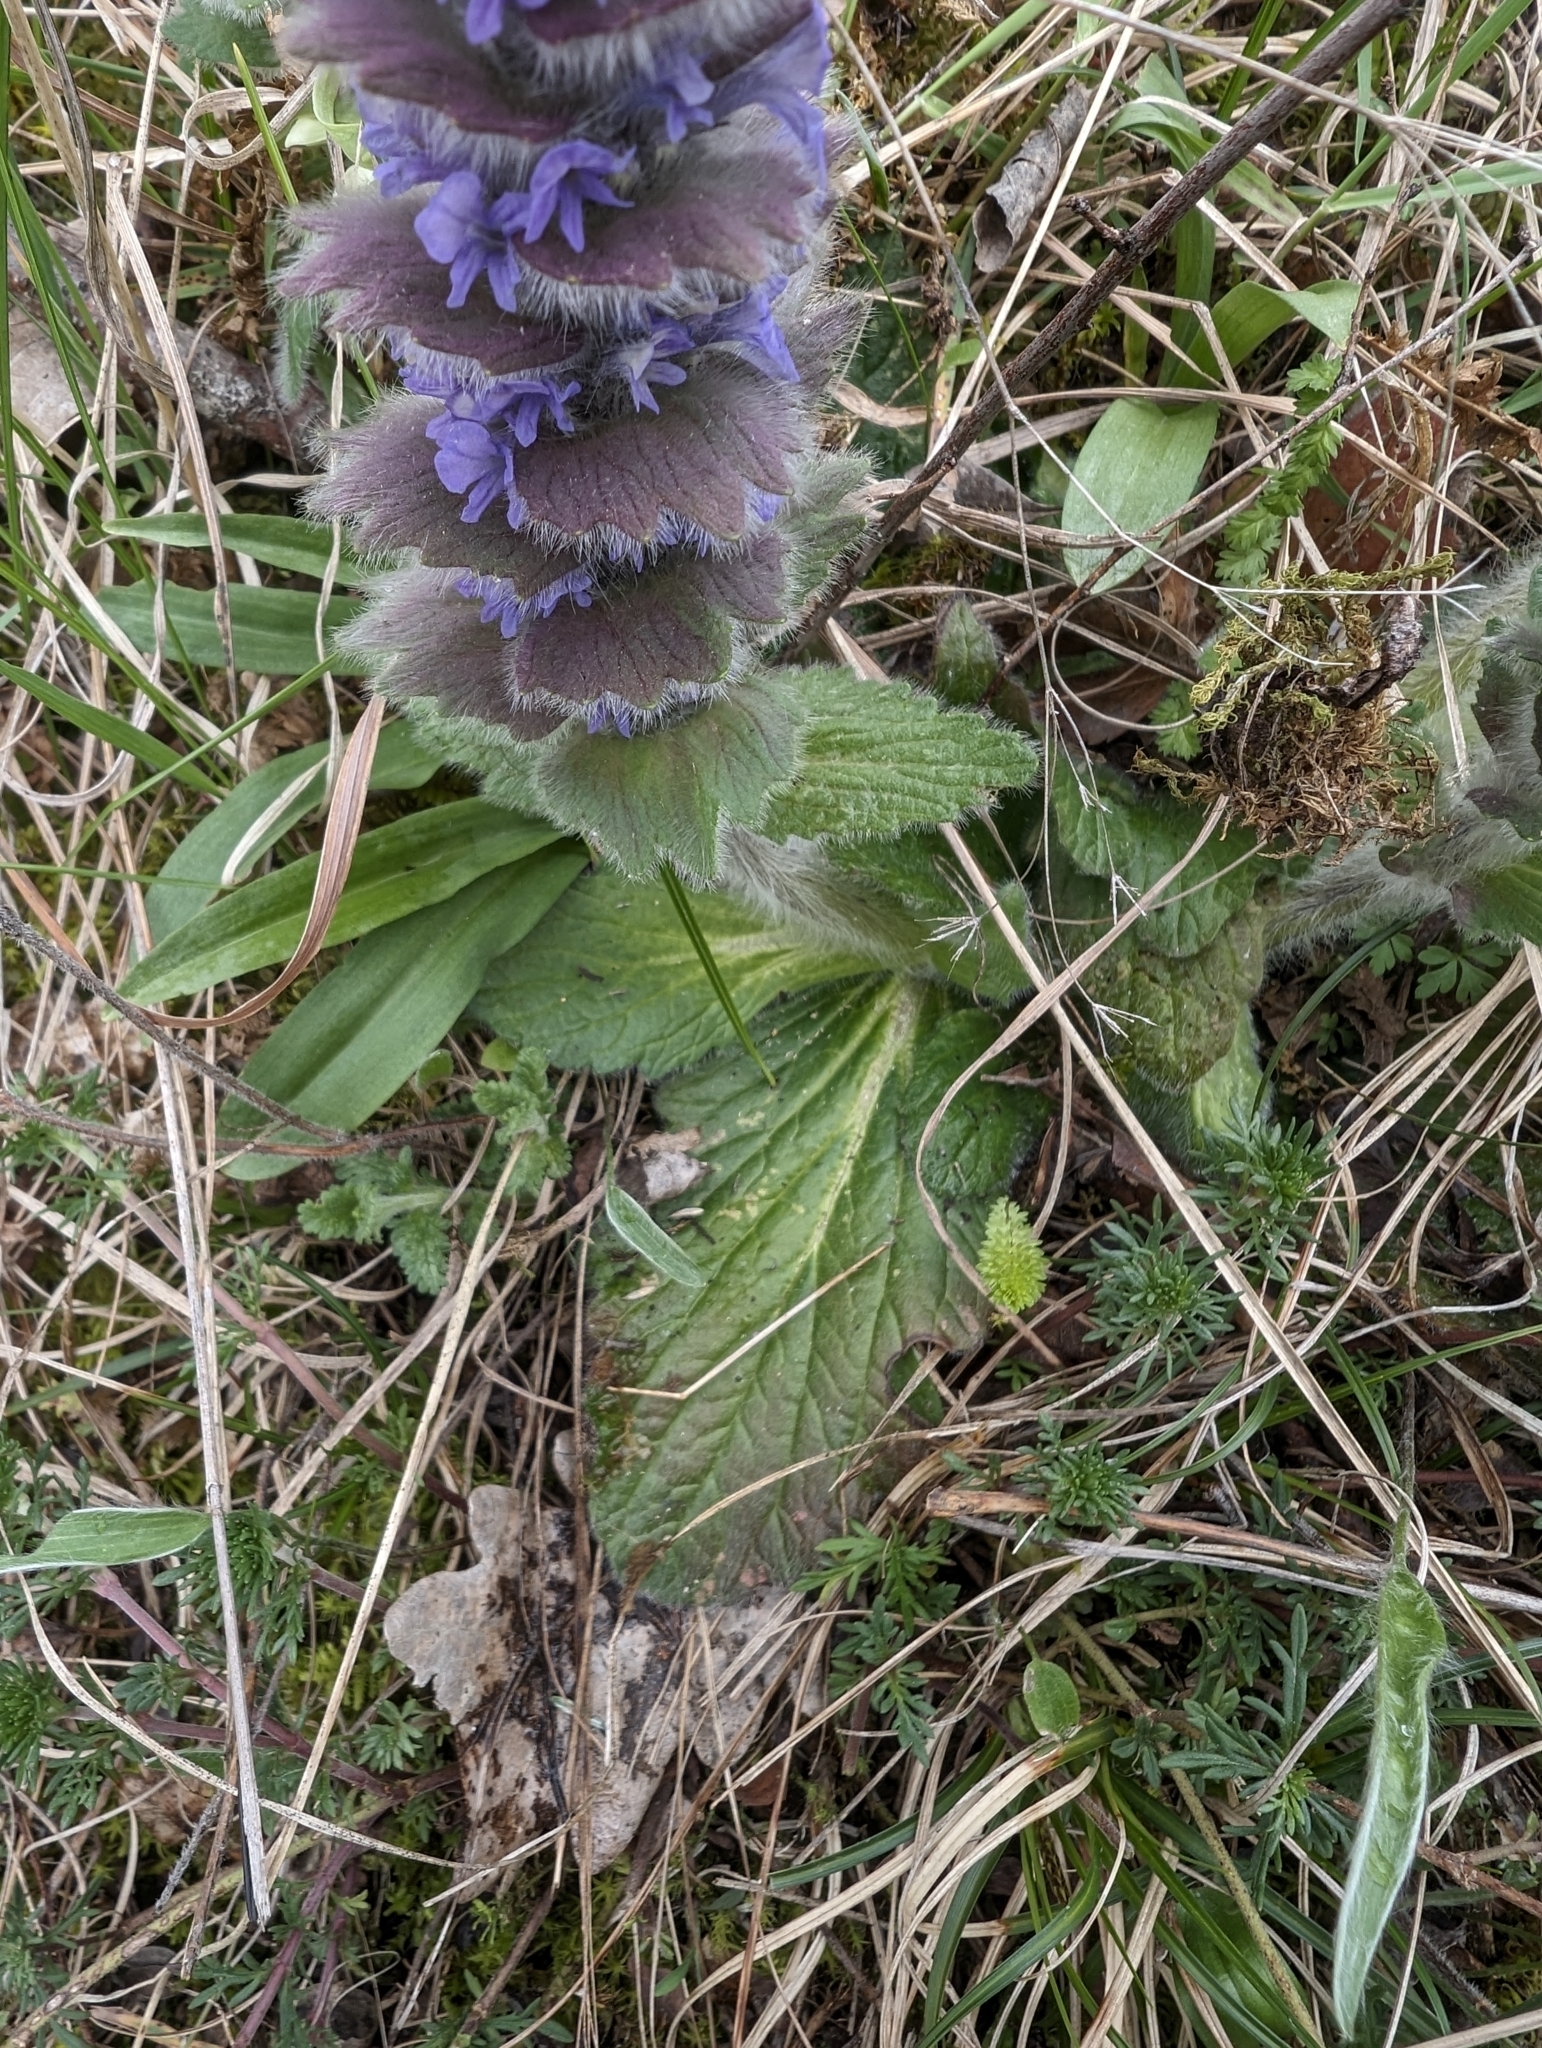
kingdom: Plantae
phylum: Tracheophyta
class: Magnoliopsida
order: Lamiales
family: Lamiaceae
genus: Ajuga
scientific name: Ajuga orientalis
